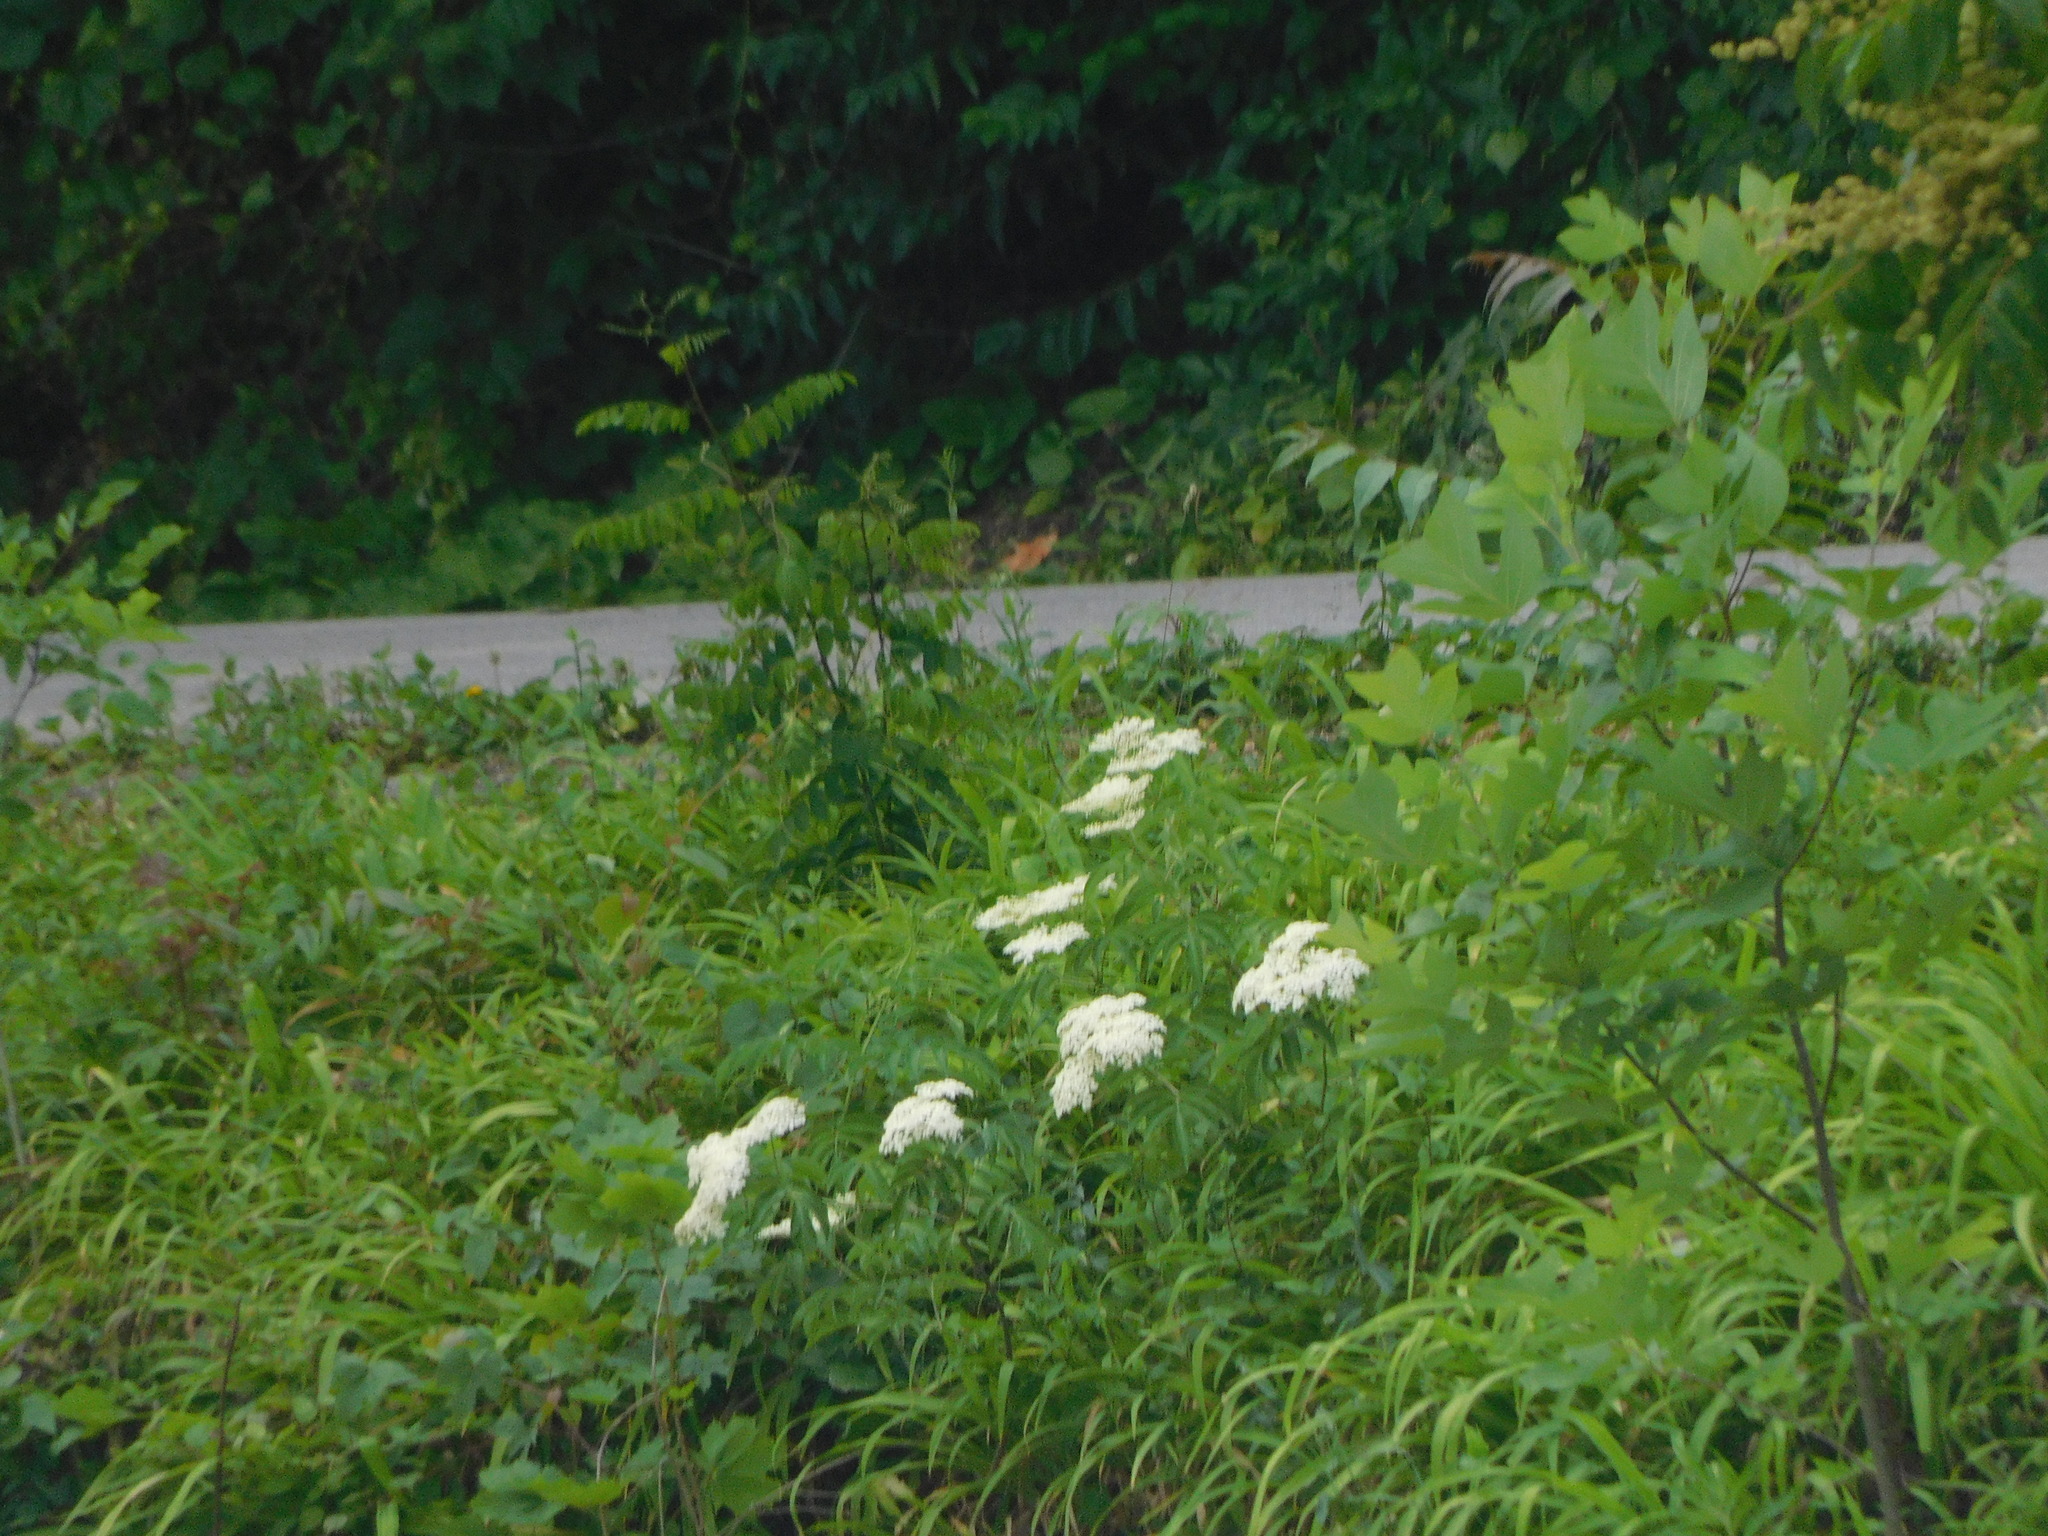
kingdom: Plantae
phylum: Tracheophyta
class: Magnoliopsida
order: Magnoliales
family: Magnoliaceae
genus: Liriodendron
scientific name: Liriodendron tulipifera
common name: Tulip tree
